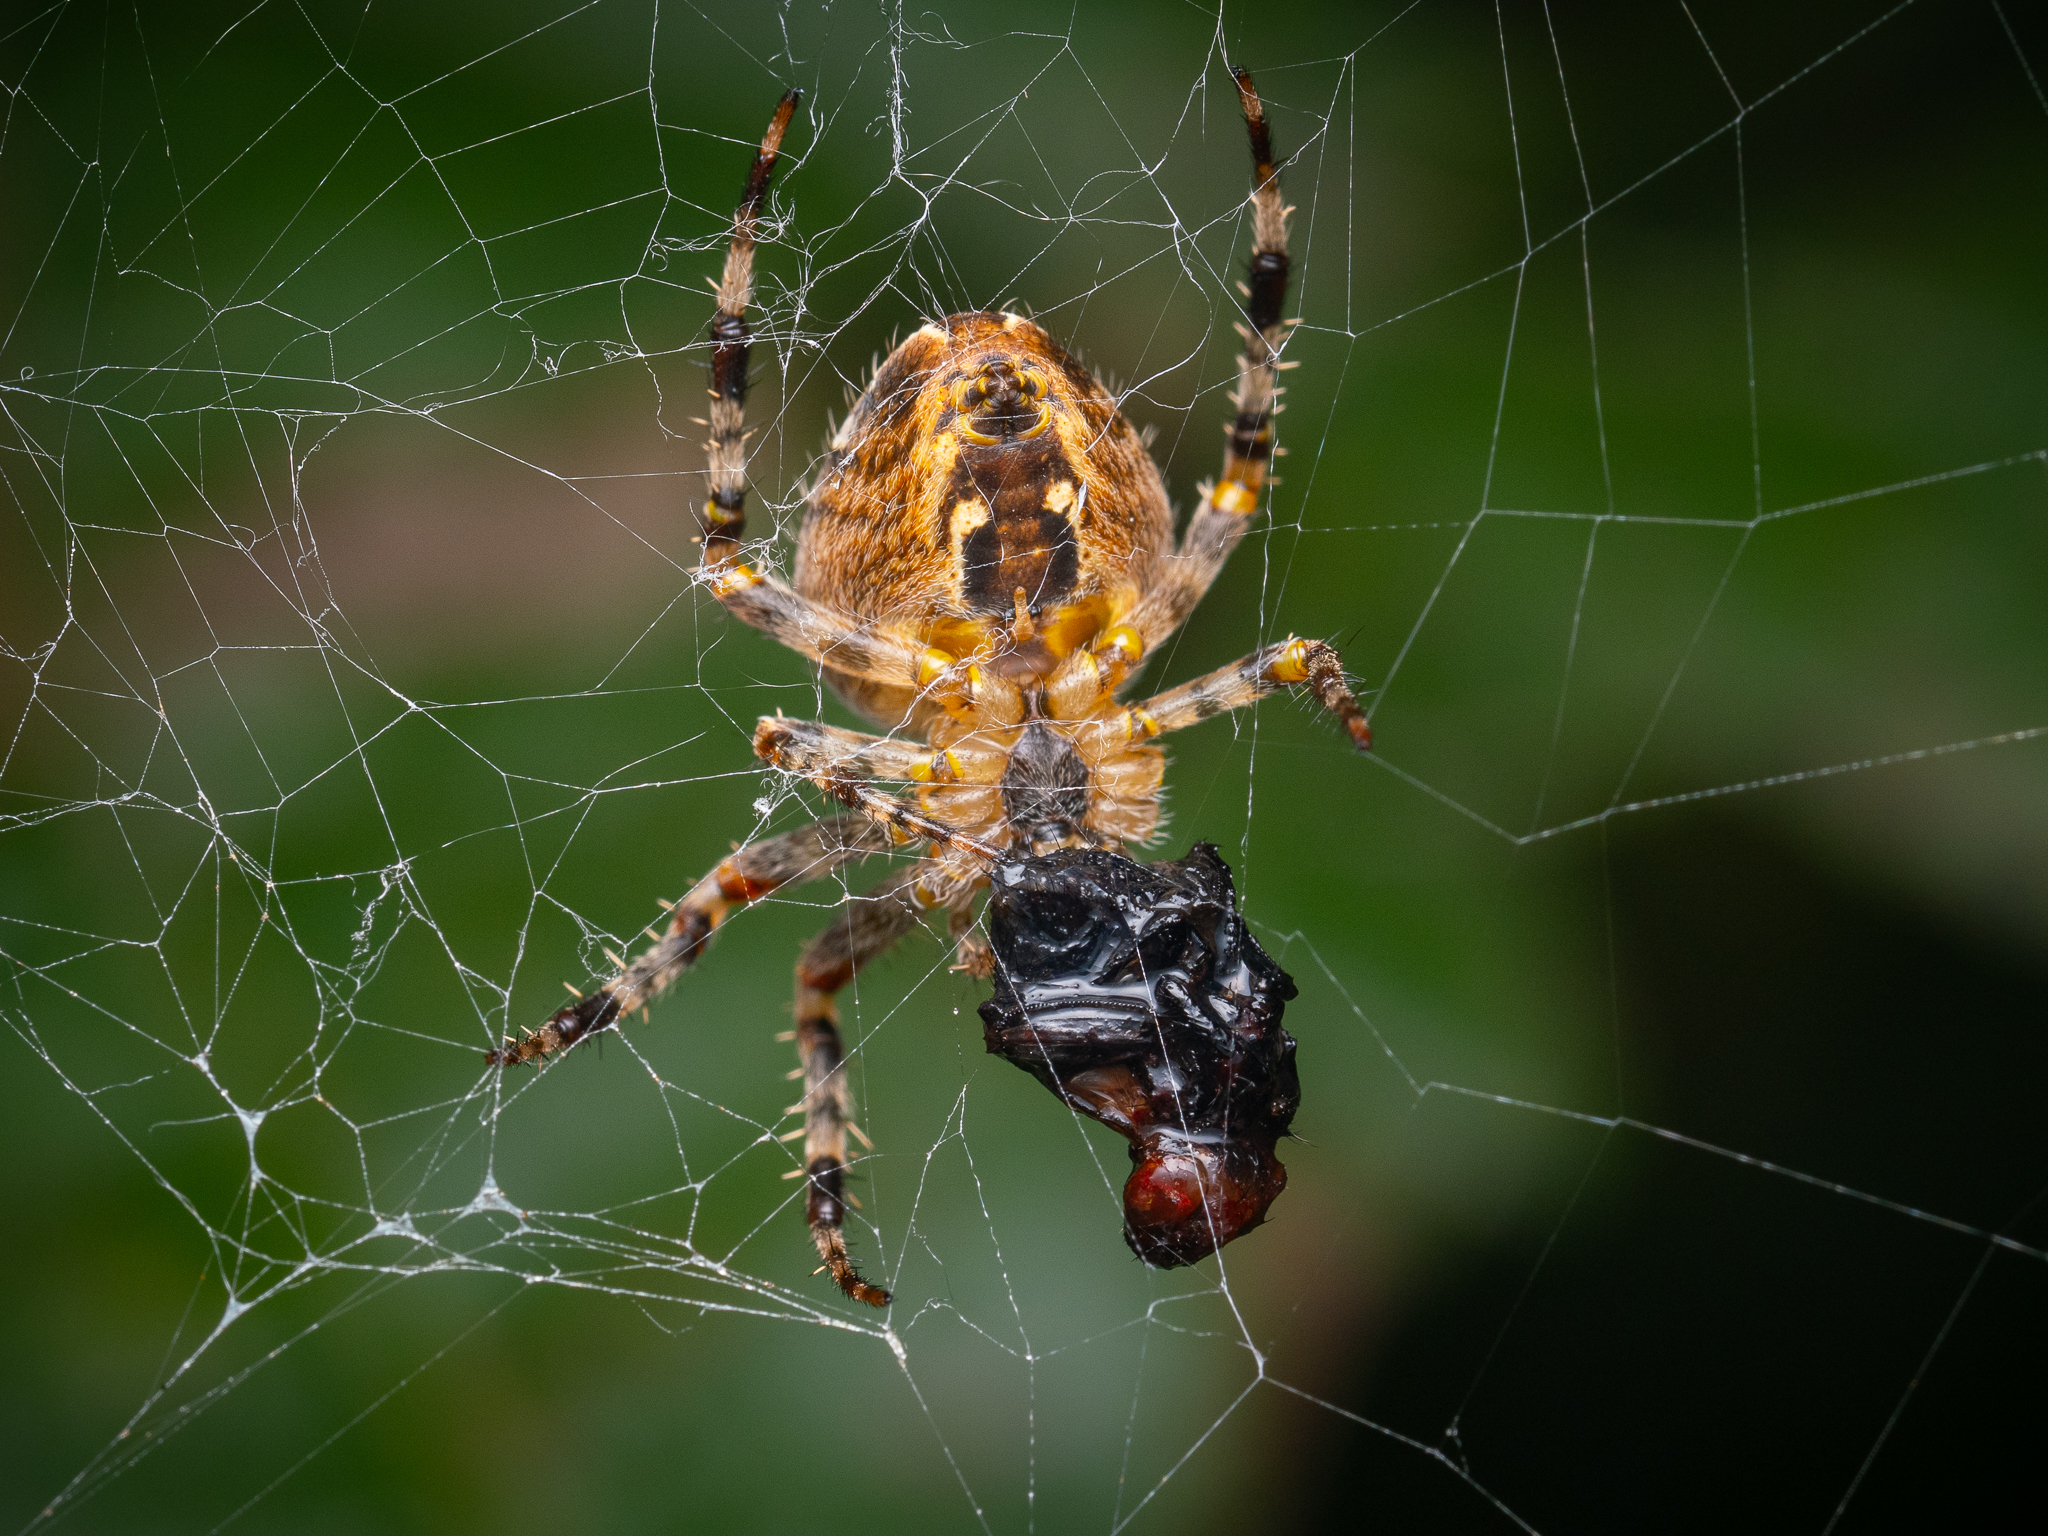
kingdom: Animalia
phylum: Arthropoda
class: Arachnida
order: Araneae
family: Araneidae
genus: Araneus
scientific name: Araneus diadematus
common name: Cross orbweaver
